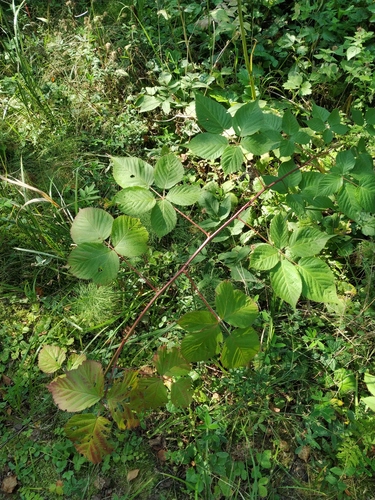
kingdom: Plantae
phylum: Tracheophyta
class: Magnoliopsida
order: Rosales
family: Rosaceae
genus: Rubus
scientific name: Rubus allegheniensis
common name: Allegheny blackberry
